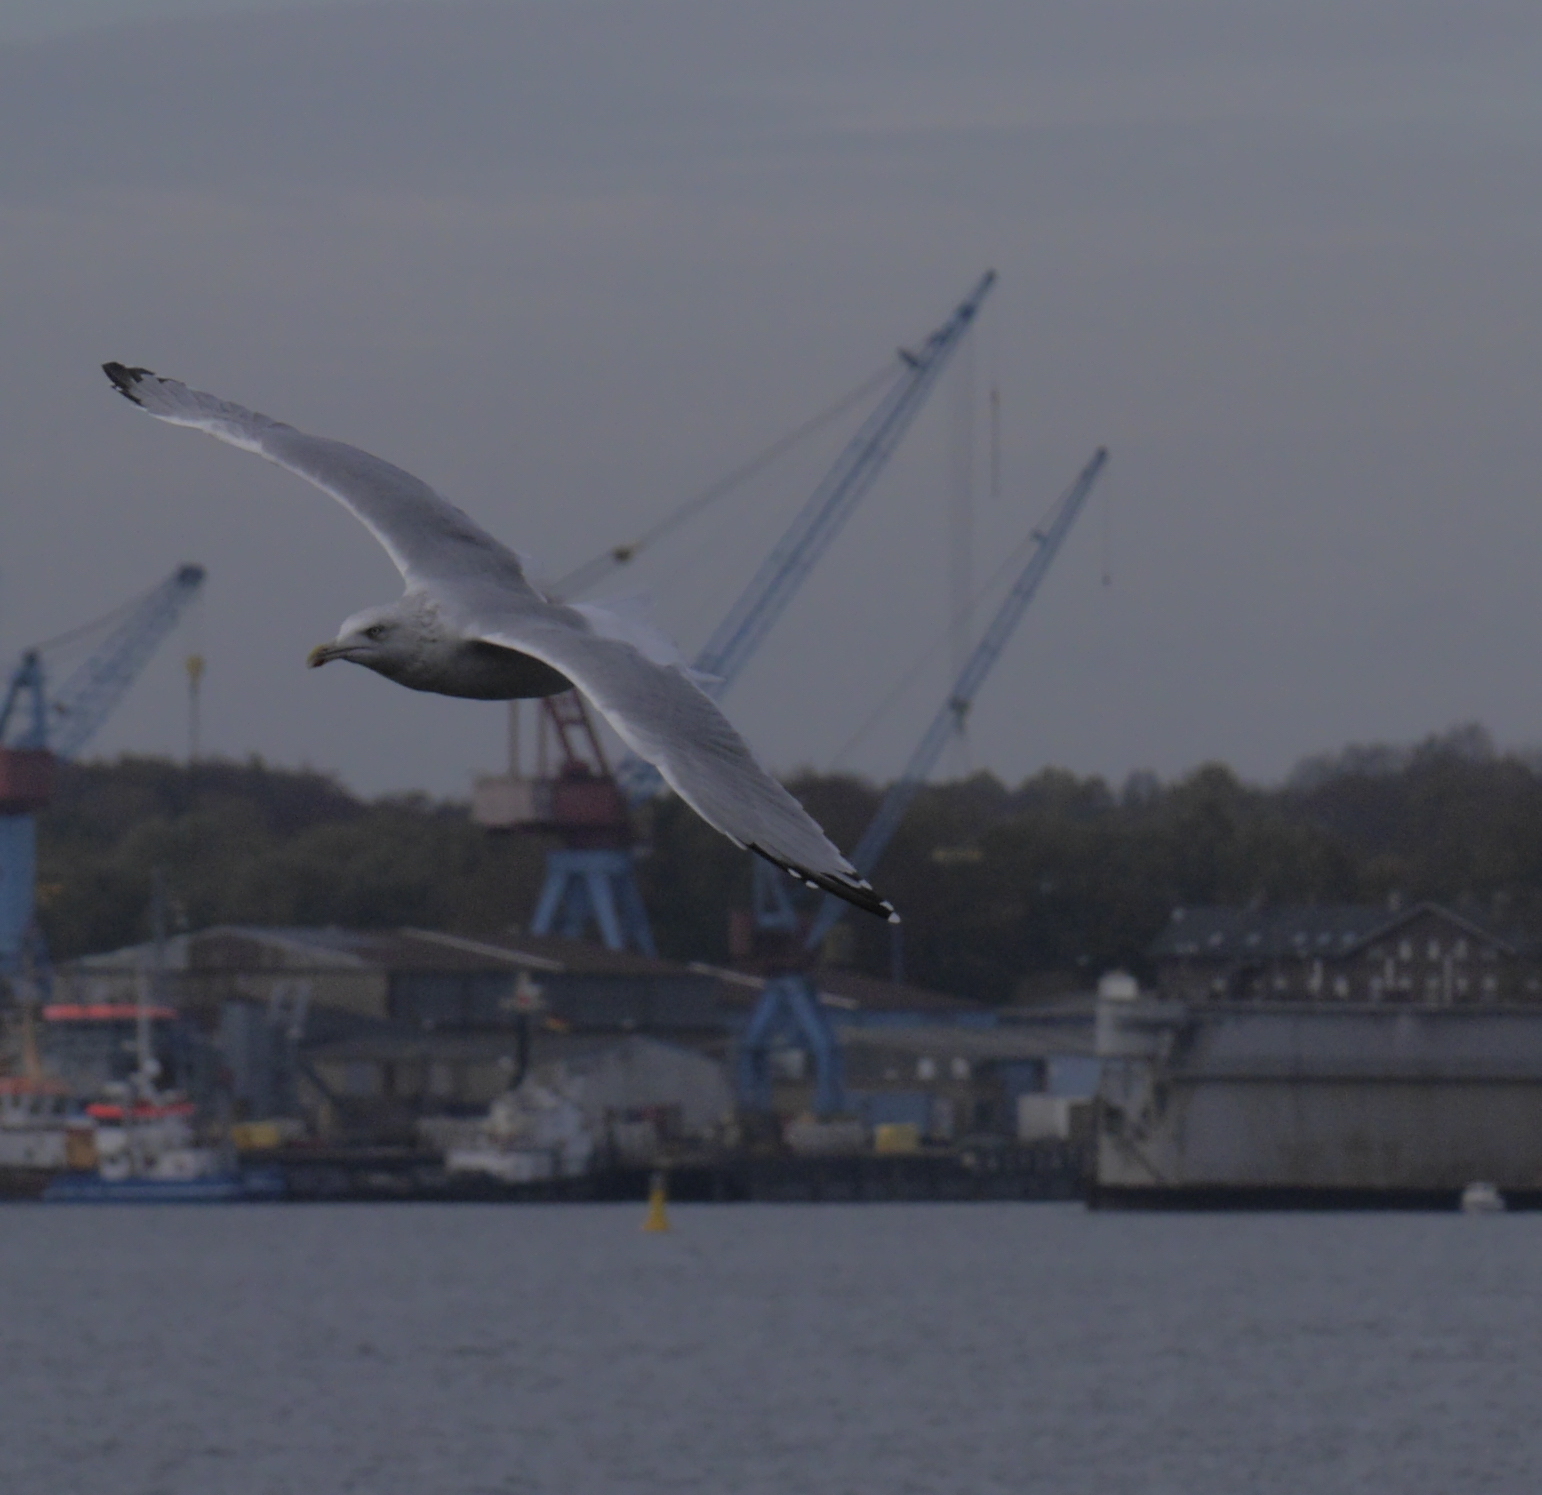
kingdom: Animalia
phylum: Chordata
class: Aves
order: Charadriiformes
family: Laridae
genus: Larus
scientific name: Larus argentatus
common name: Herring gull
